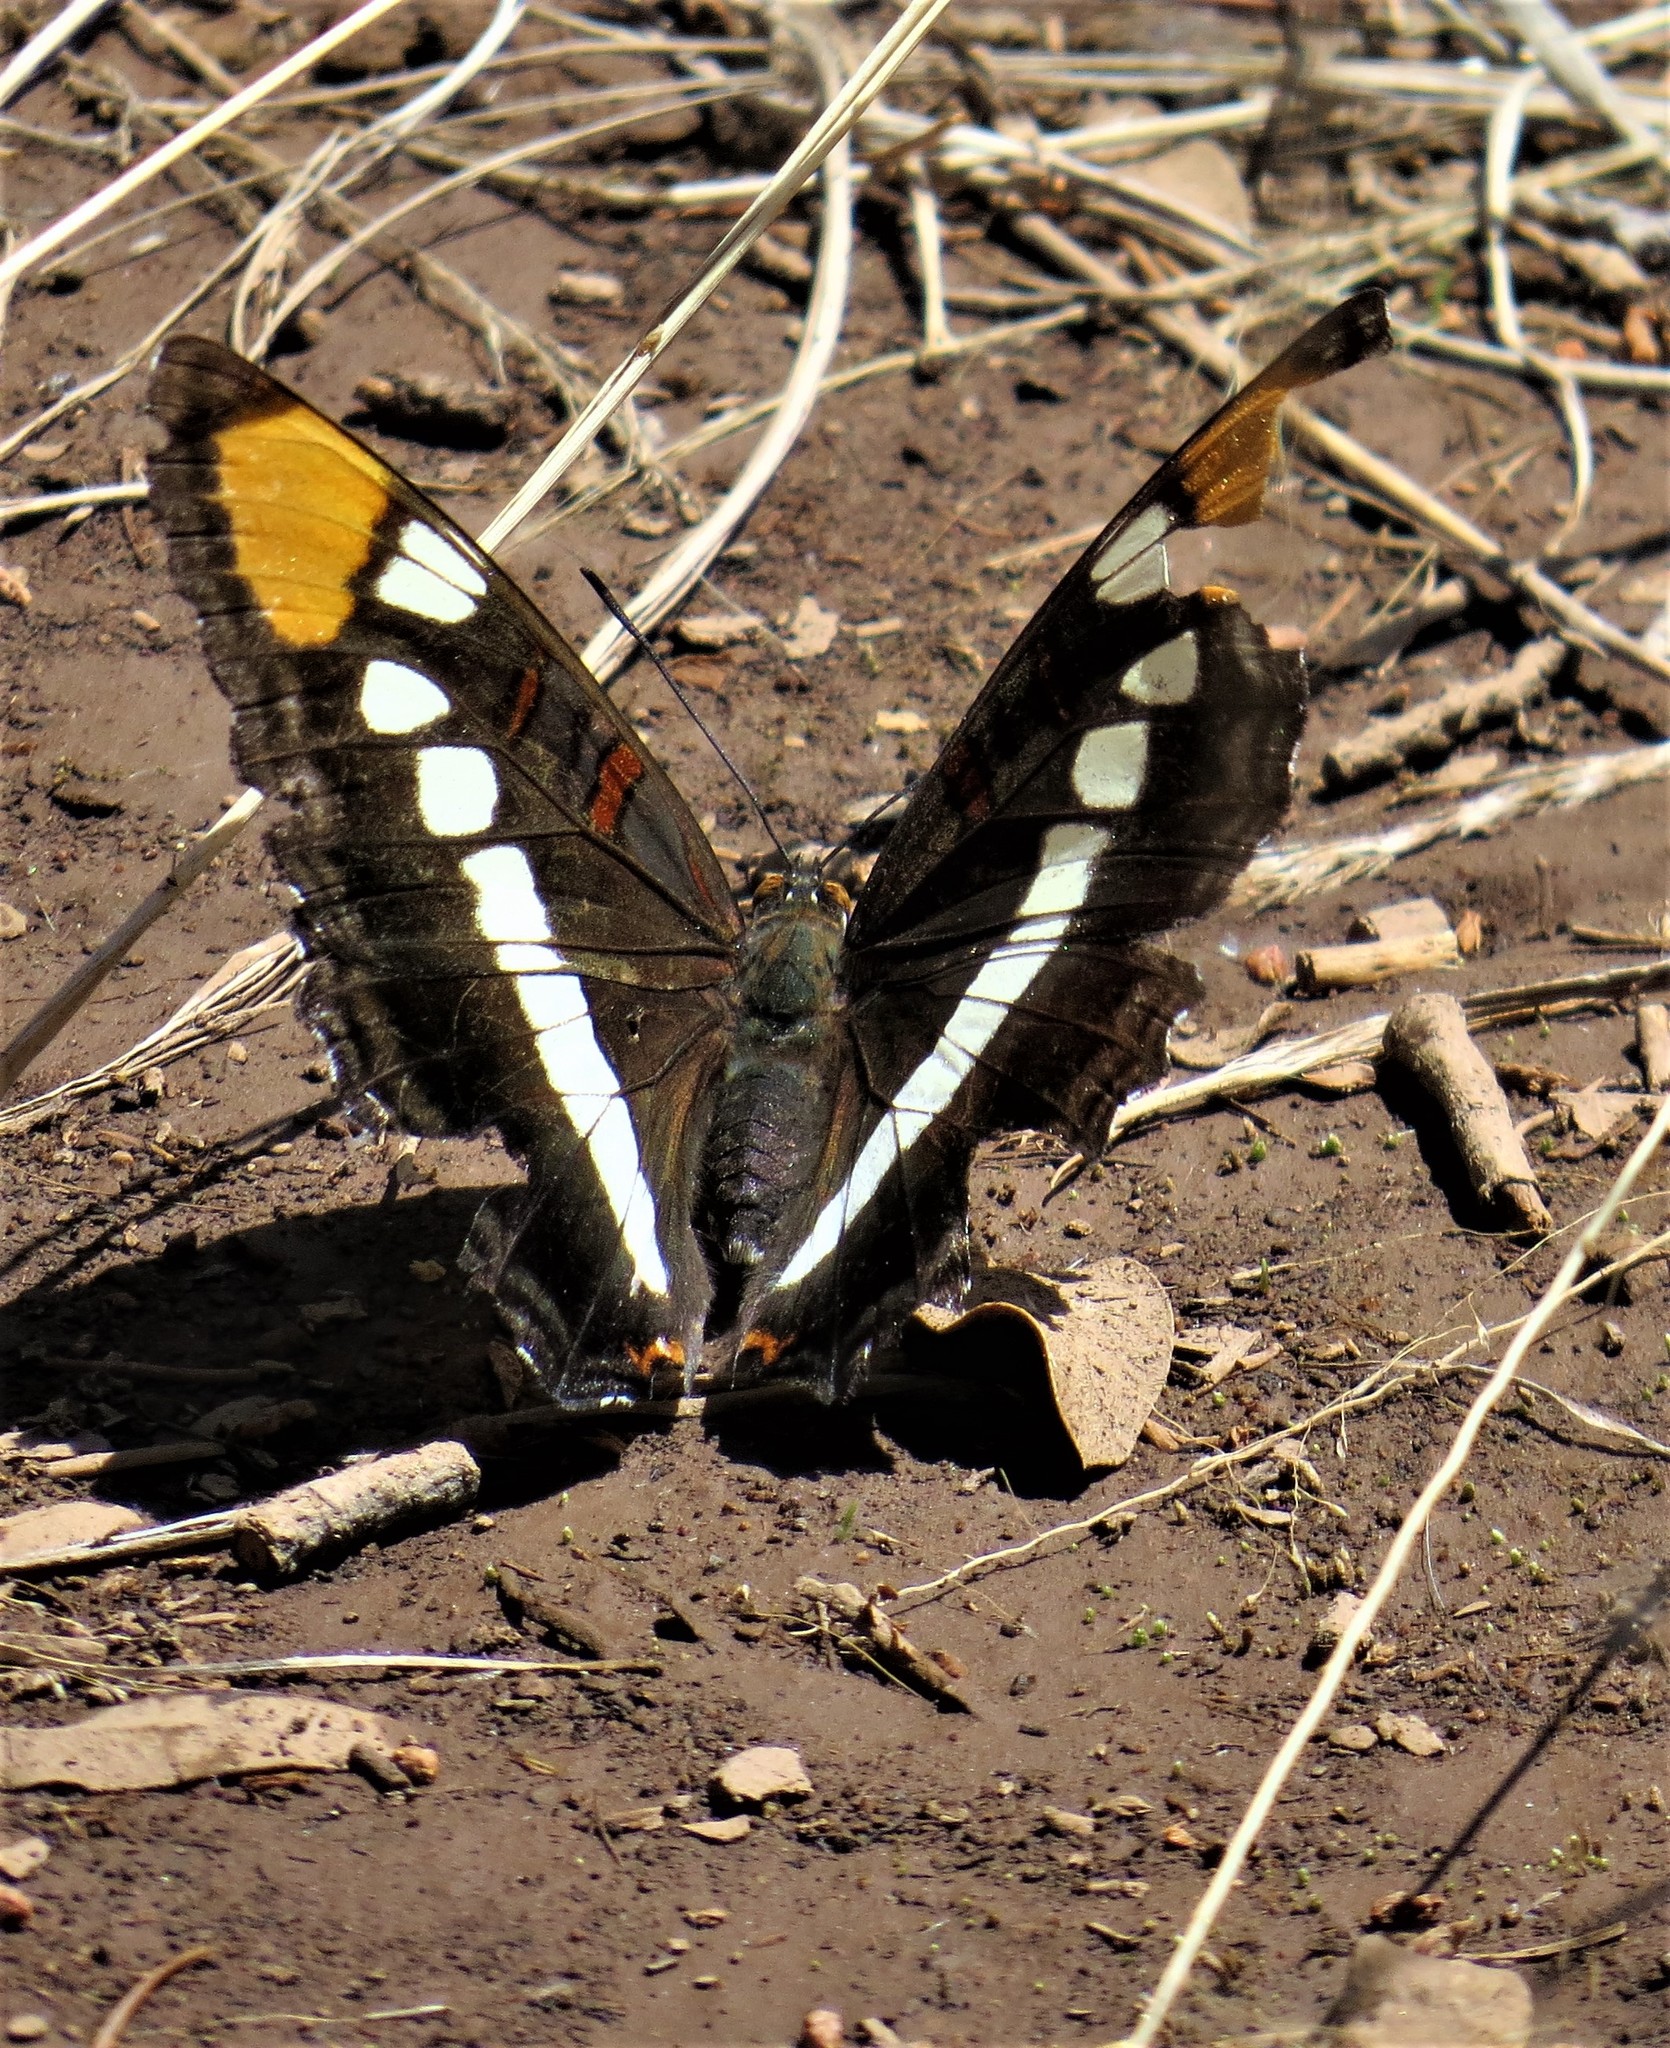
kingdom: Animalia
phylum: Arthropoda
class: Insecta
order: Lepidoptera
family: Nymphalidae
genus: Limenitis
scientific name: Limenitis bredowii
